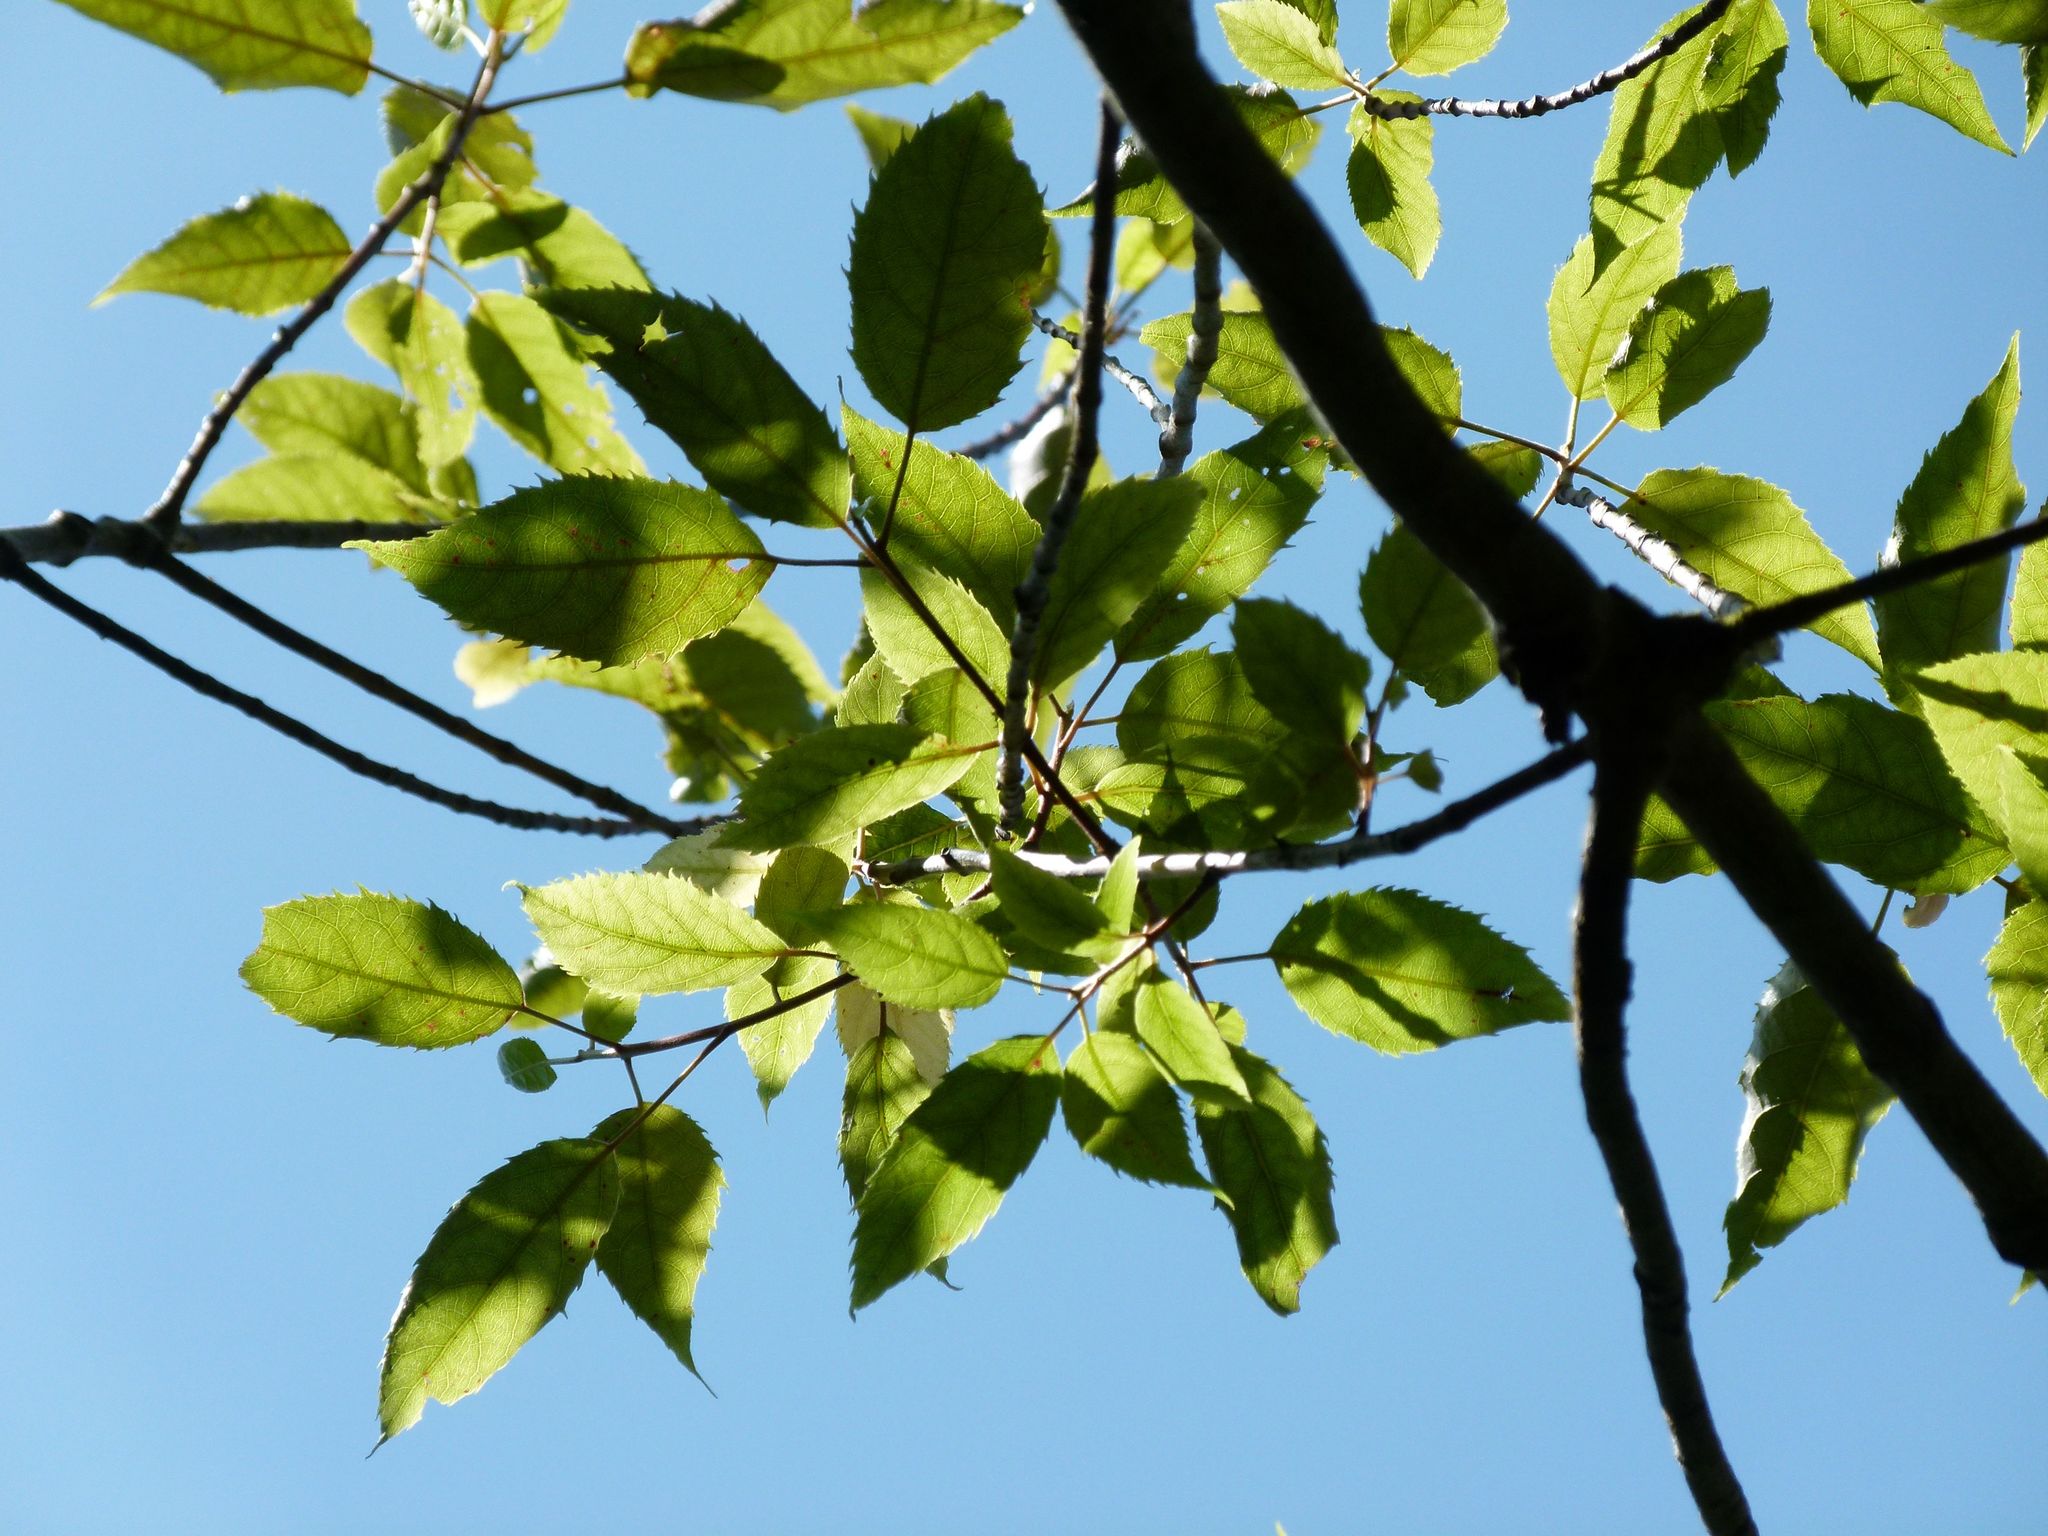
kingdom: Plantae
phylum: Tracheophyta
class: Magnoliopsida
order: Oxalidales
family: Elaeocarpaceae
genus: Aristotelia
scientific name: Aristotelia serrata
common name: New zealand wineberry
